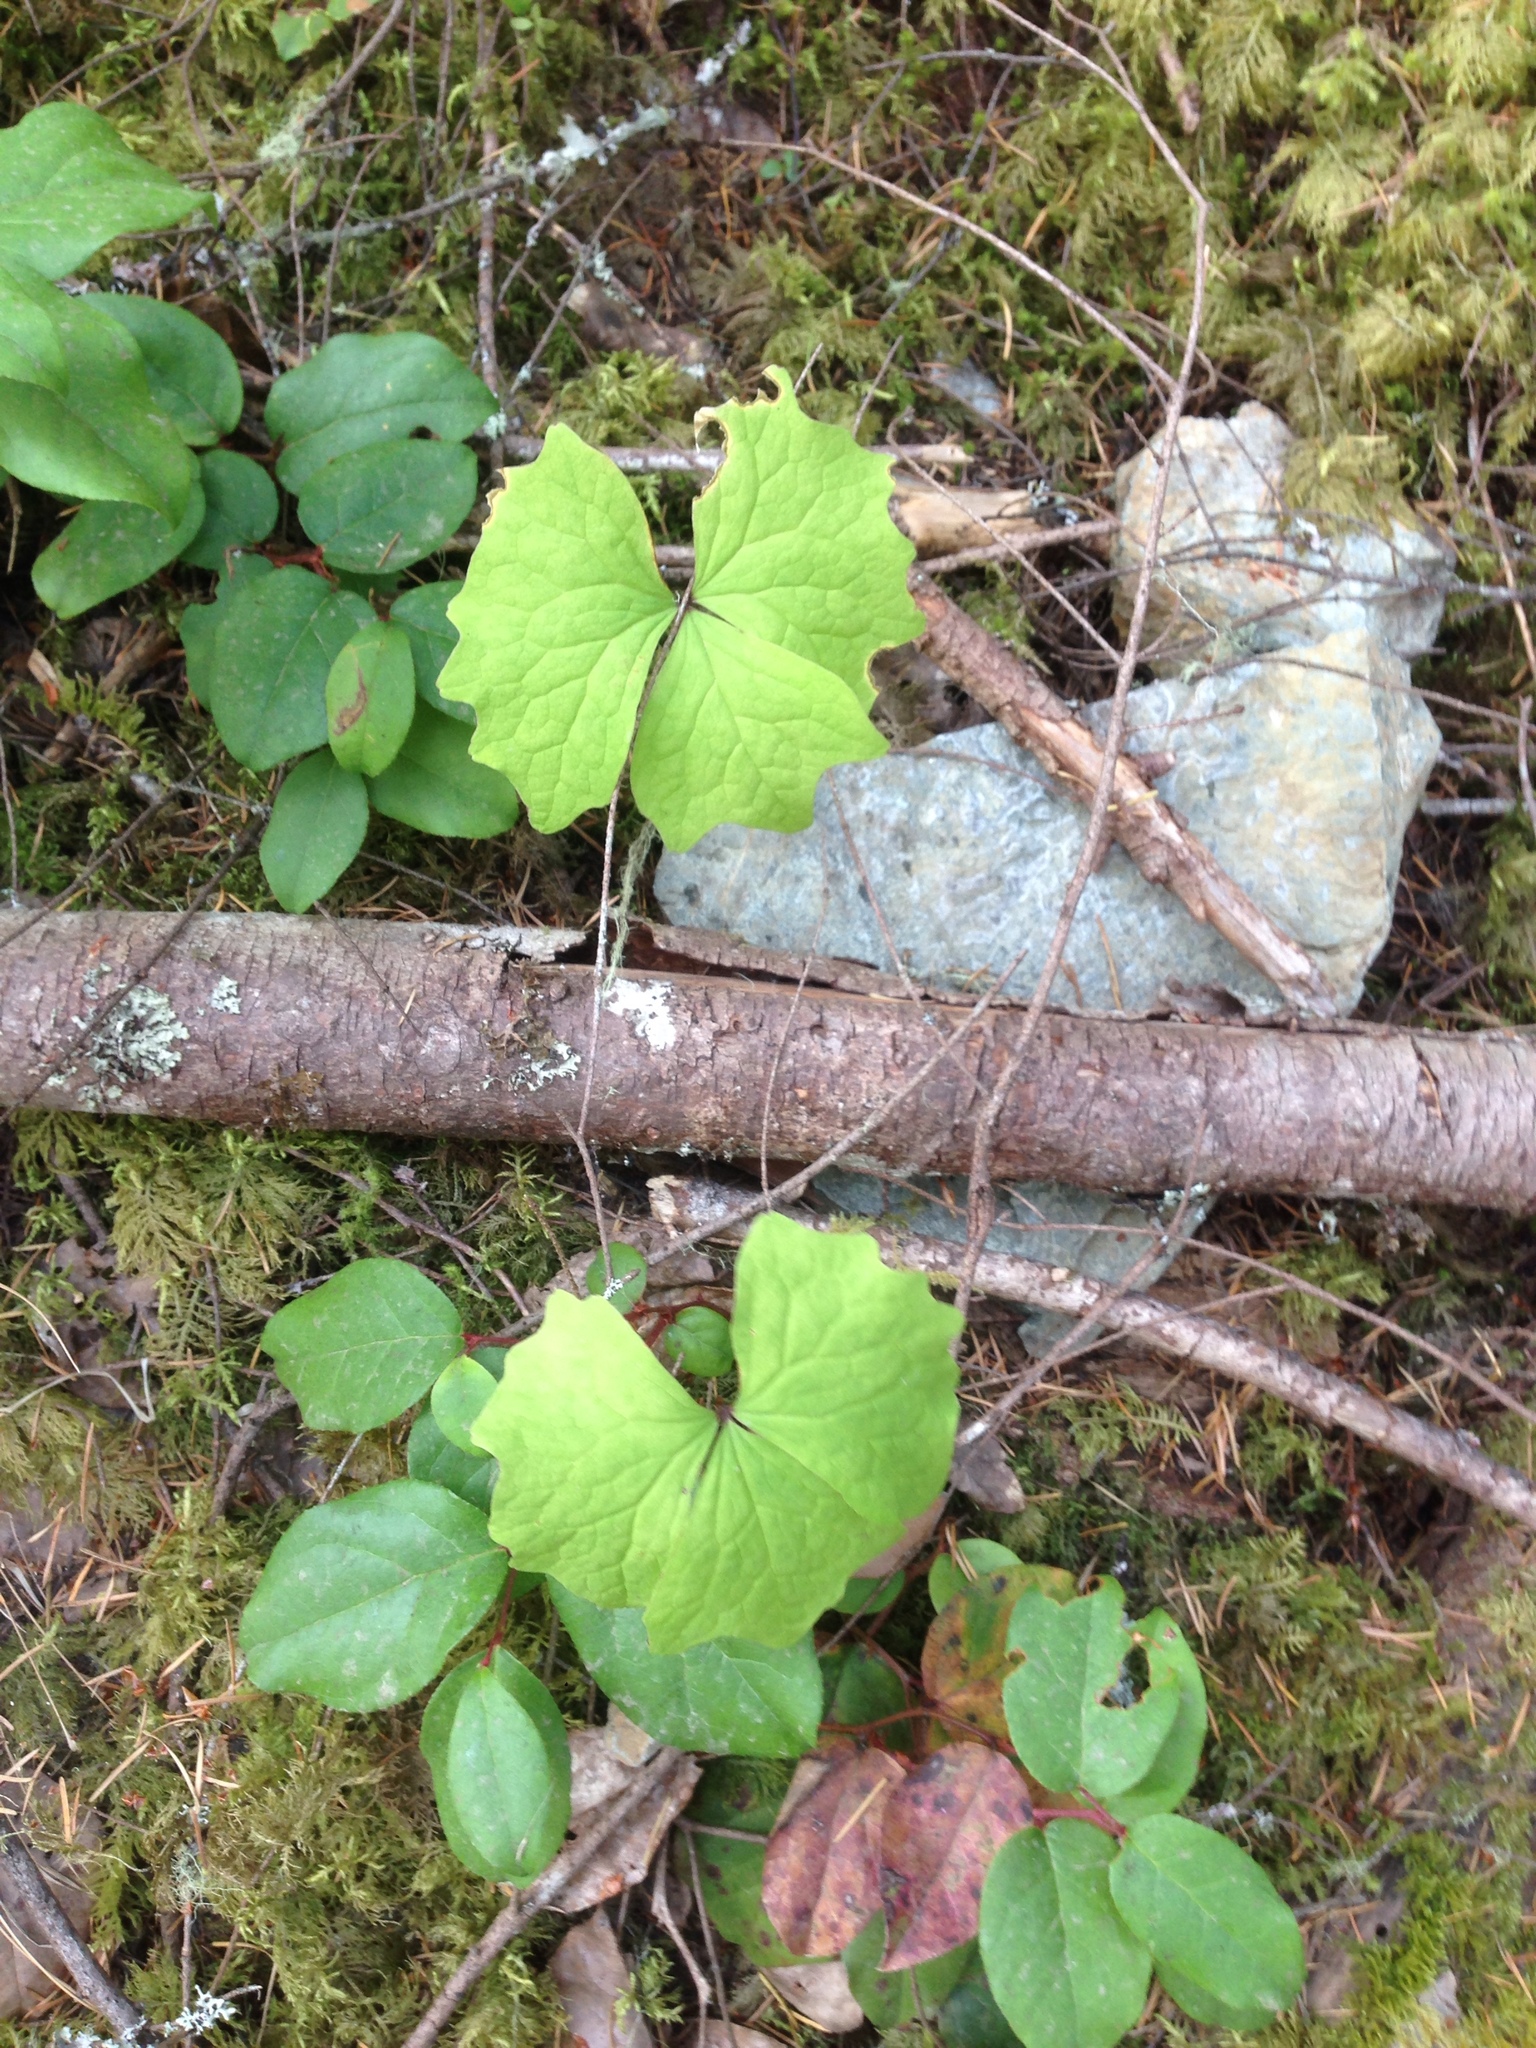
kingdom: Plantae
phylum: Tracheophyta
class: Magnoliopsida
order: Ranunculales
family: Berberidaceae
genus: Achlys
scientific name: Achlys triphylla
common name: Vanilla-leaf
